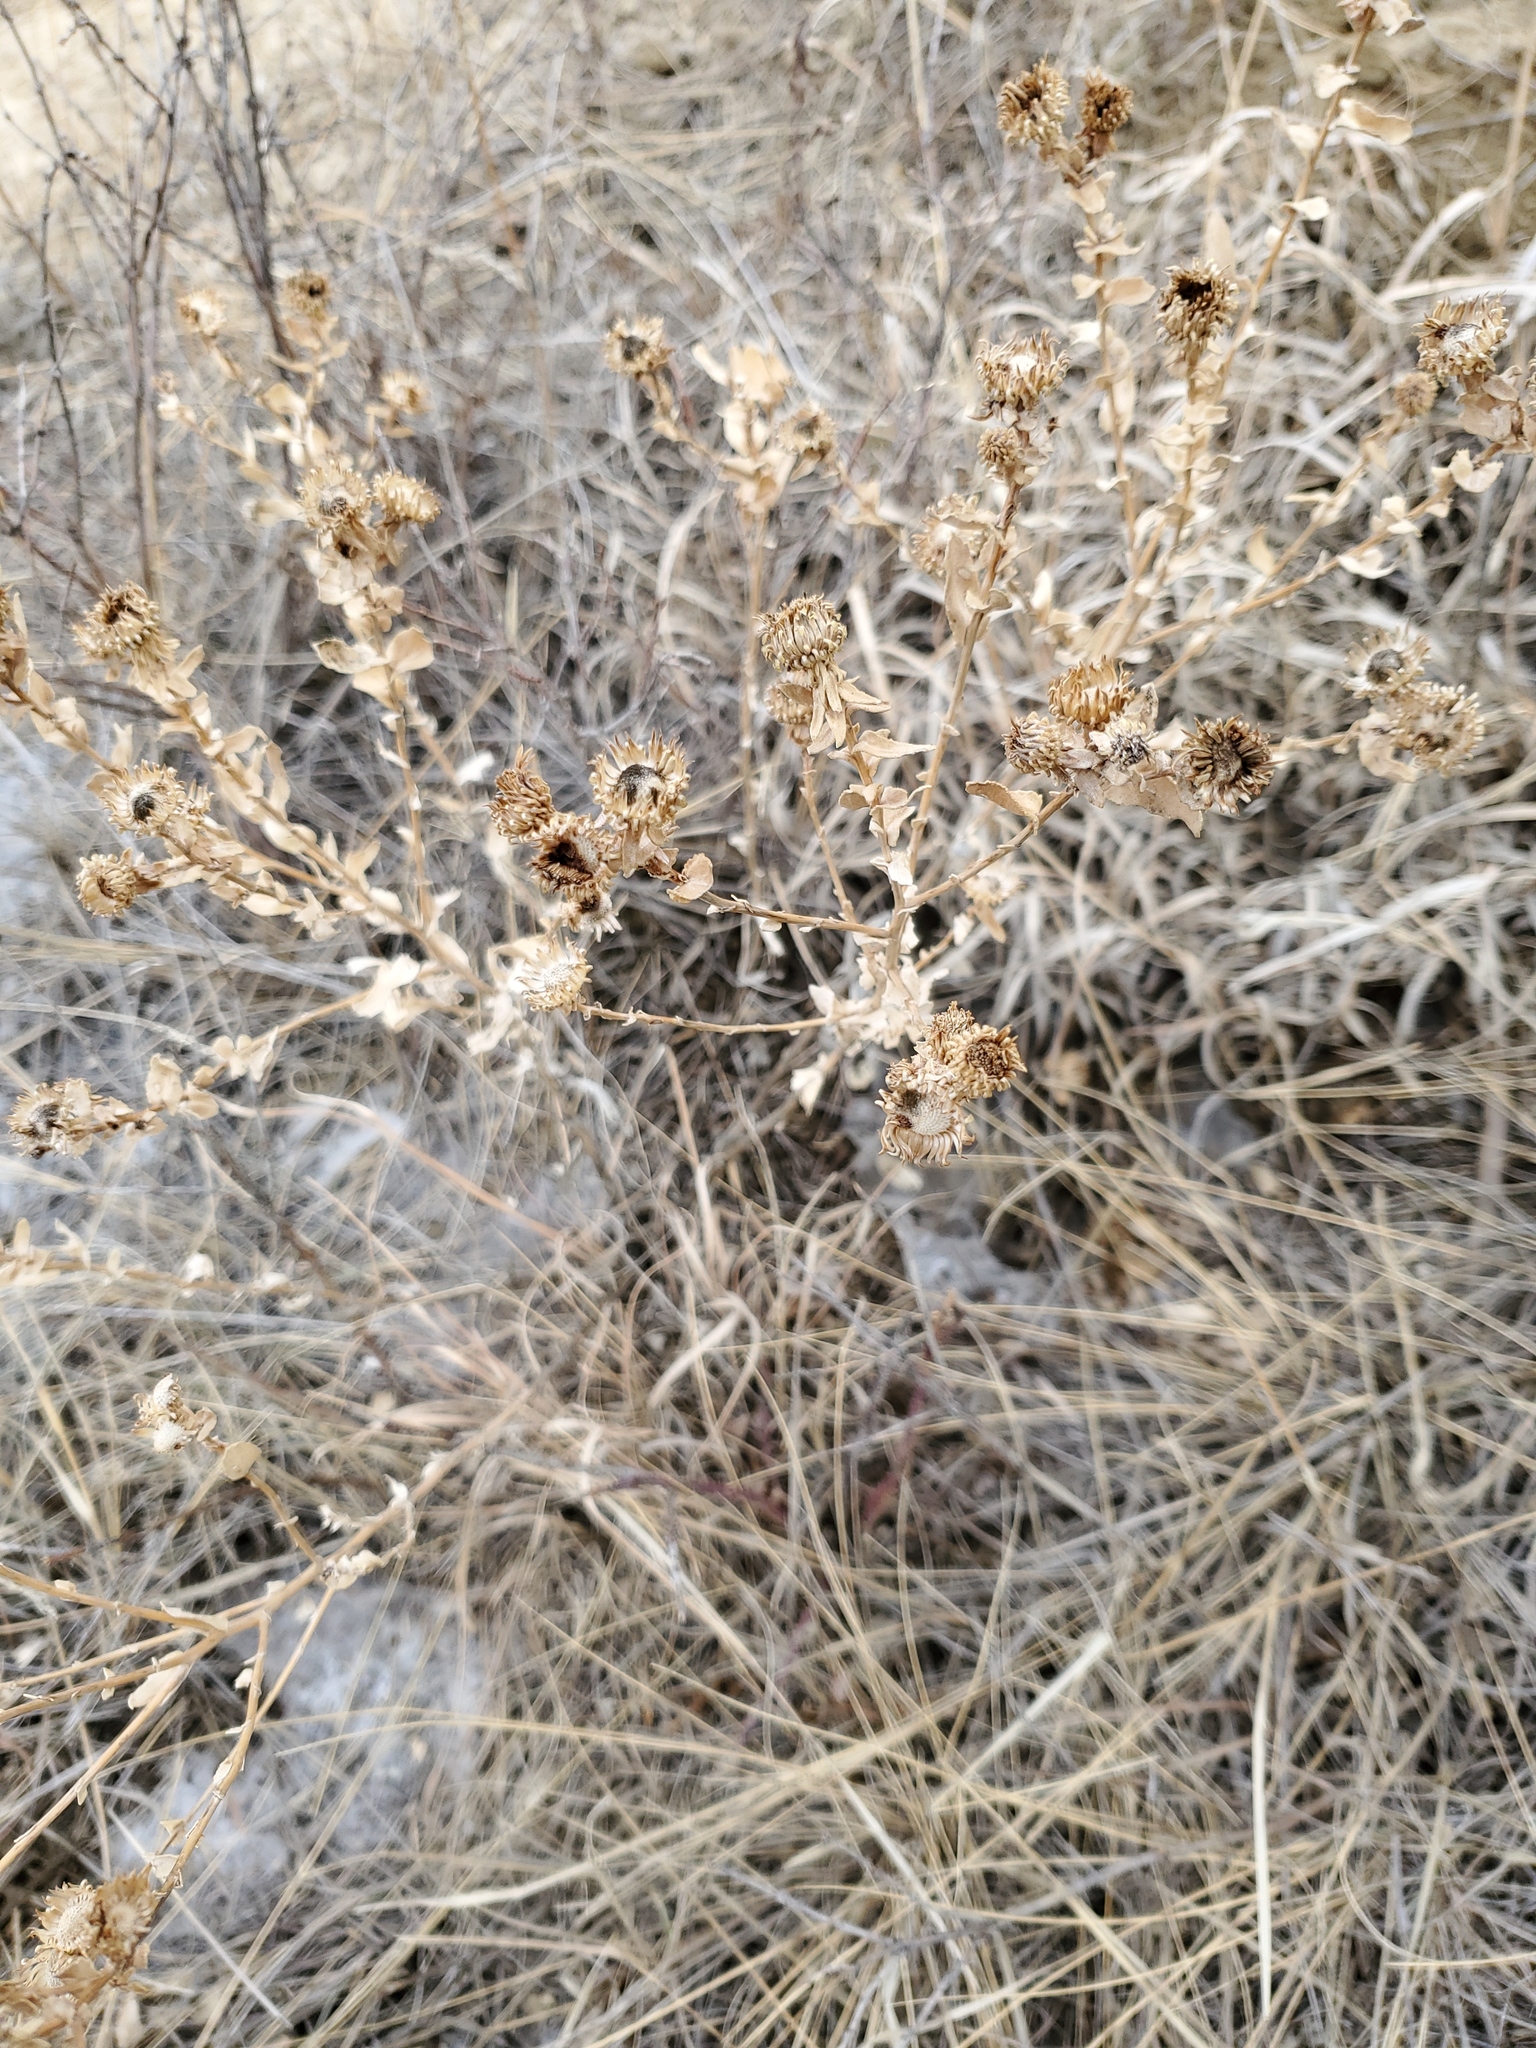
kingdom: Plantae
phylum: Tracheophyta
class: Magnoliopsida
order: Asterales
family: Asteraceae
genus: Grindelia
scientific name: Grindelia squarrosa
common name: Curly-cup gumweed
